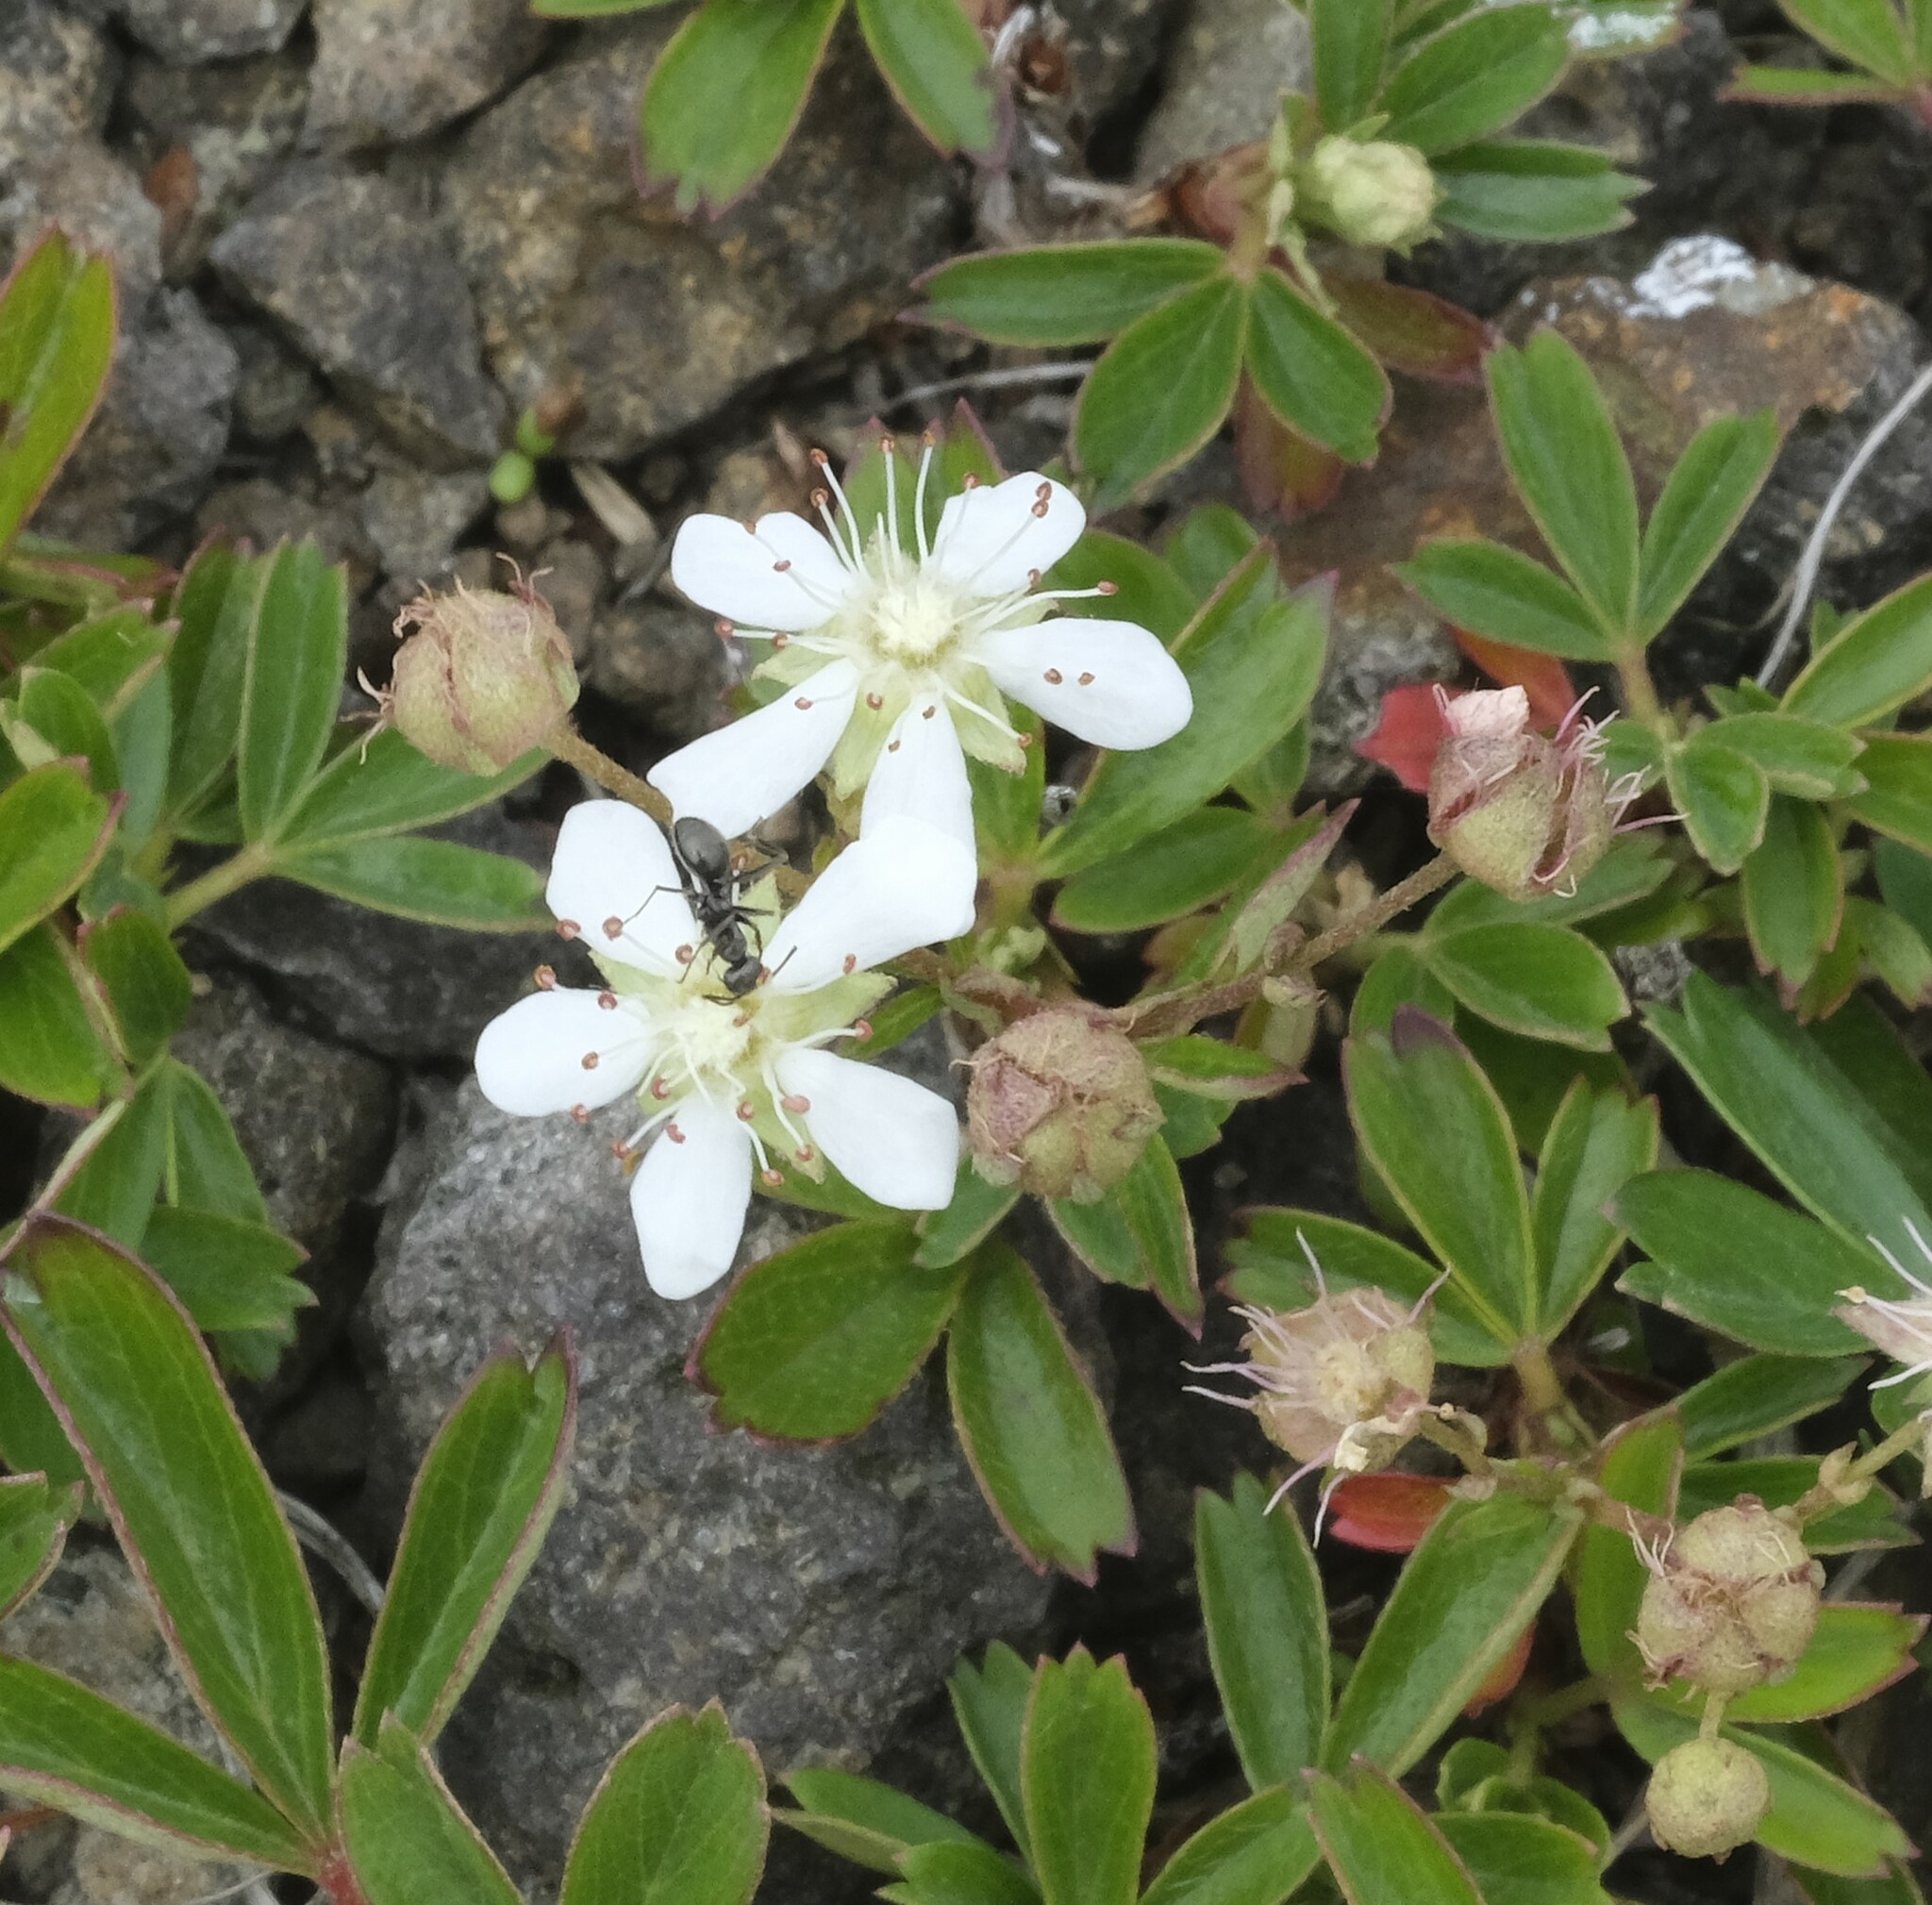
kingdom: Plantae
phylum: Tracheophyta
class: Magnoliopsida
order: Rosales
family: Rosaceae
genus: Sibbaldia
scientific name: Sibbaldia tridentata
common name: Three-toothed cinquefoil
